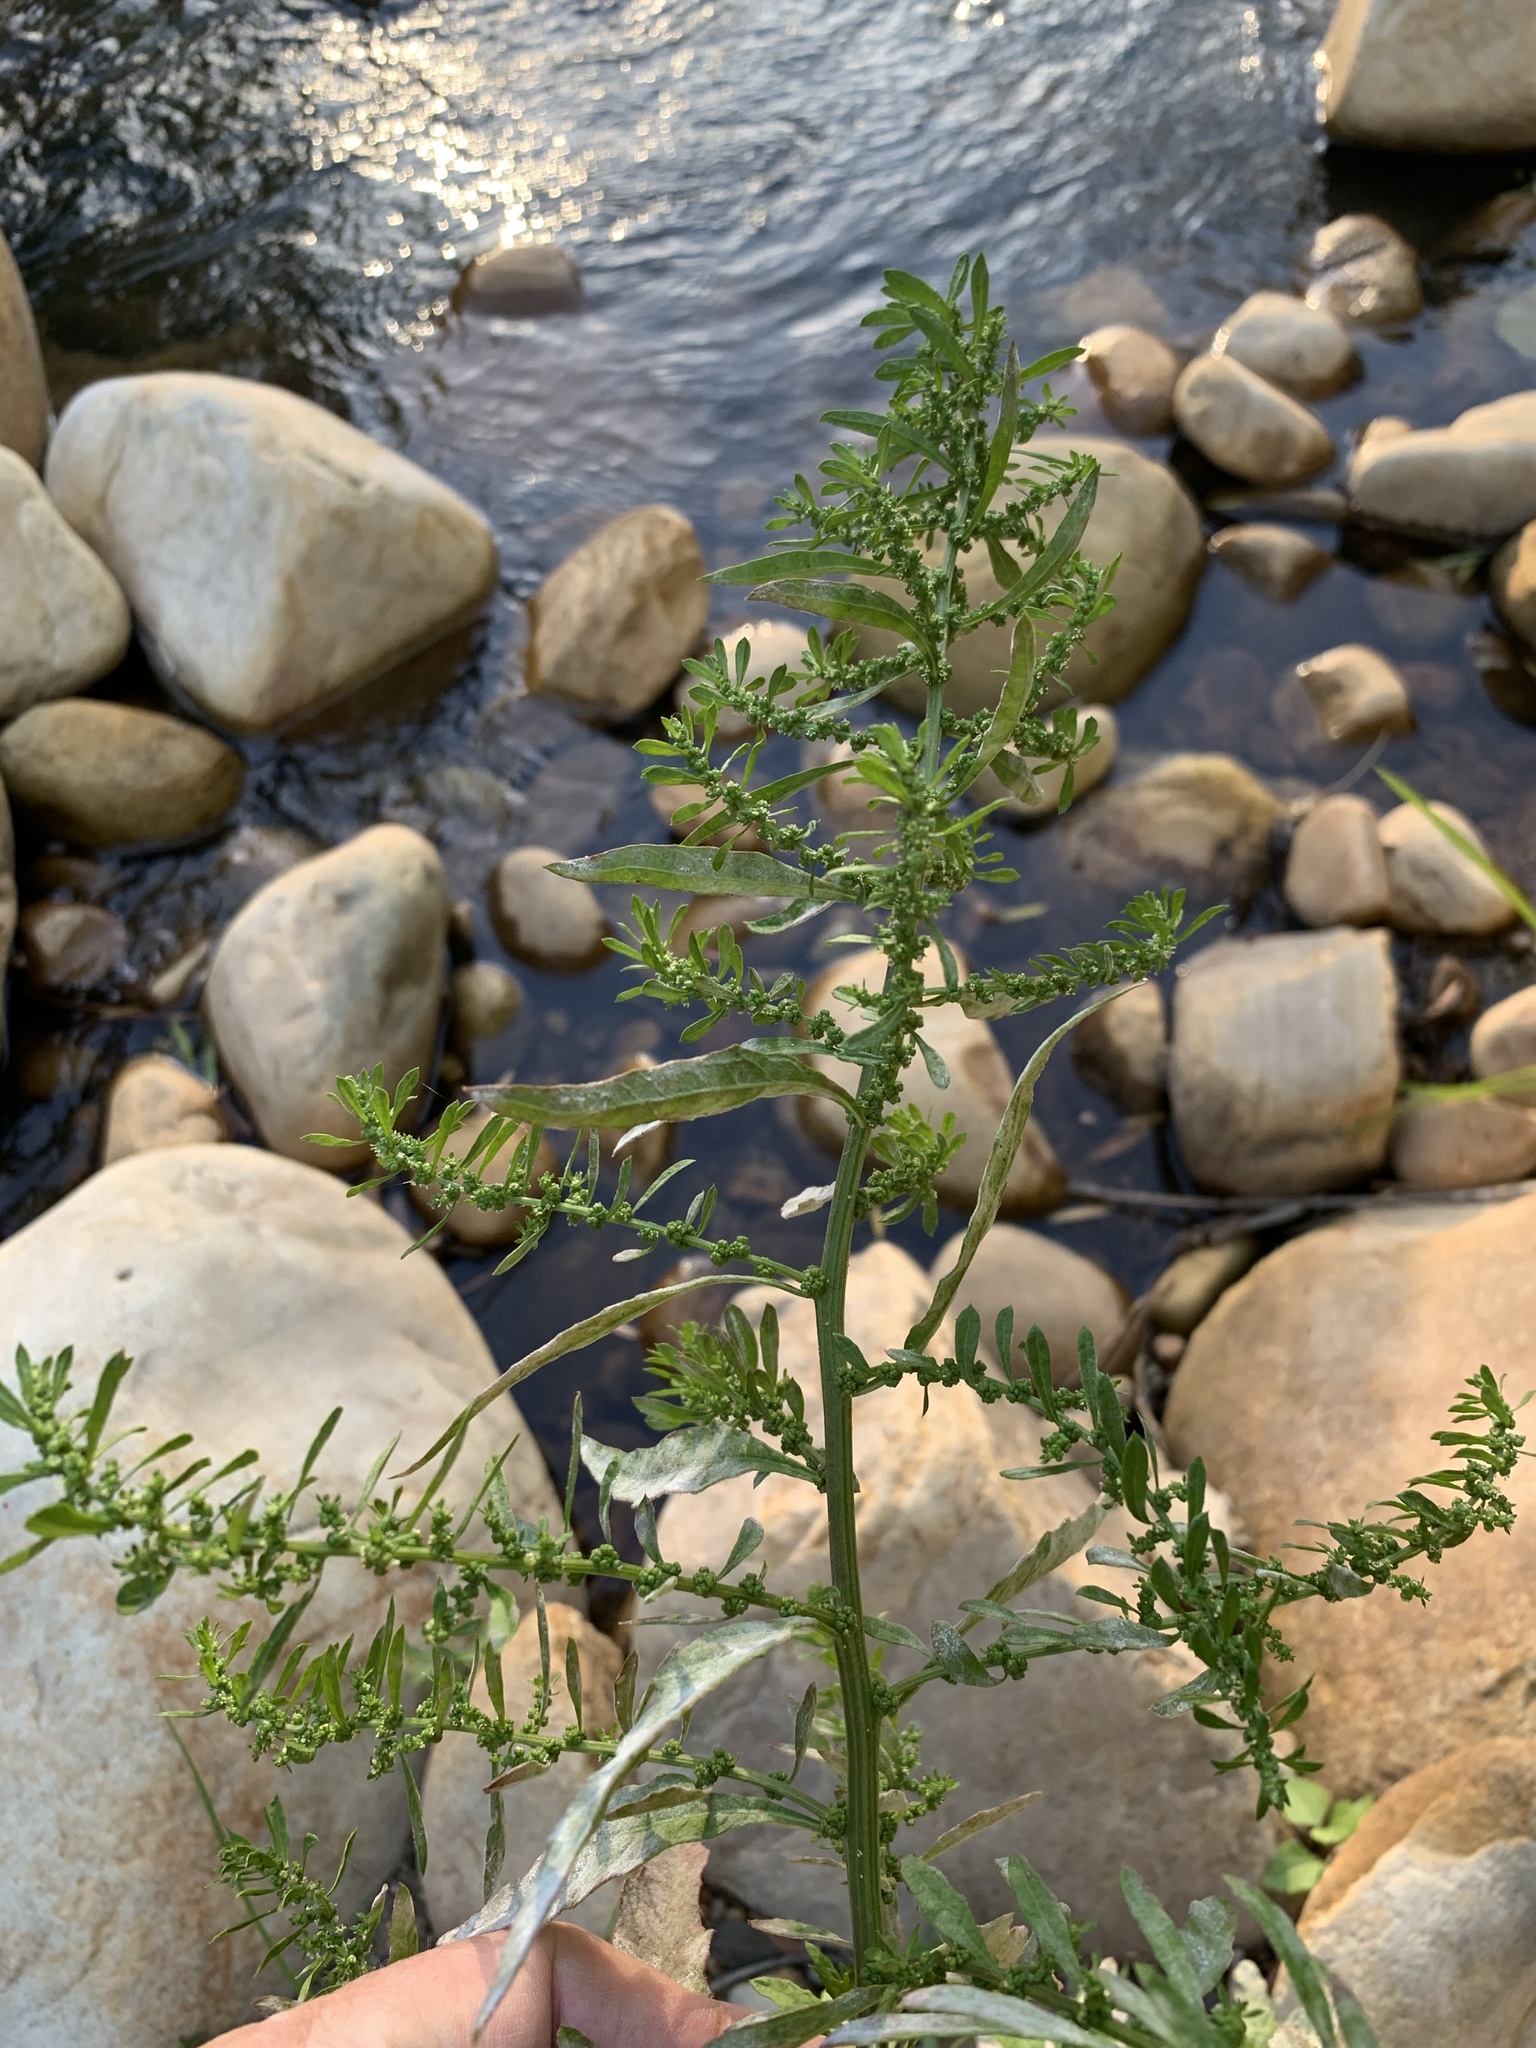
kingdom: Plantae
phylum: Tracheophyta
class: Magnoliopsida
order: Caryophyllales
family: Amaranthaceae
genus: Dysphania
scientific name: Dysphania ambrosioides
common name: Wormseed
